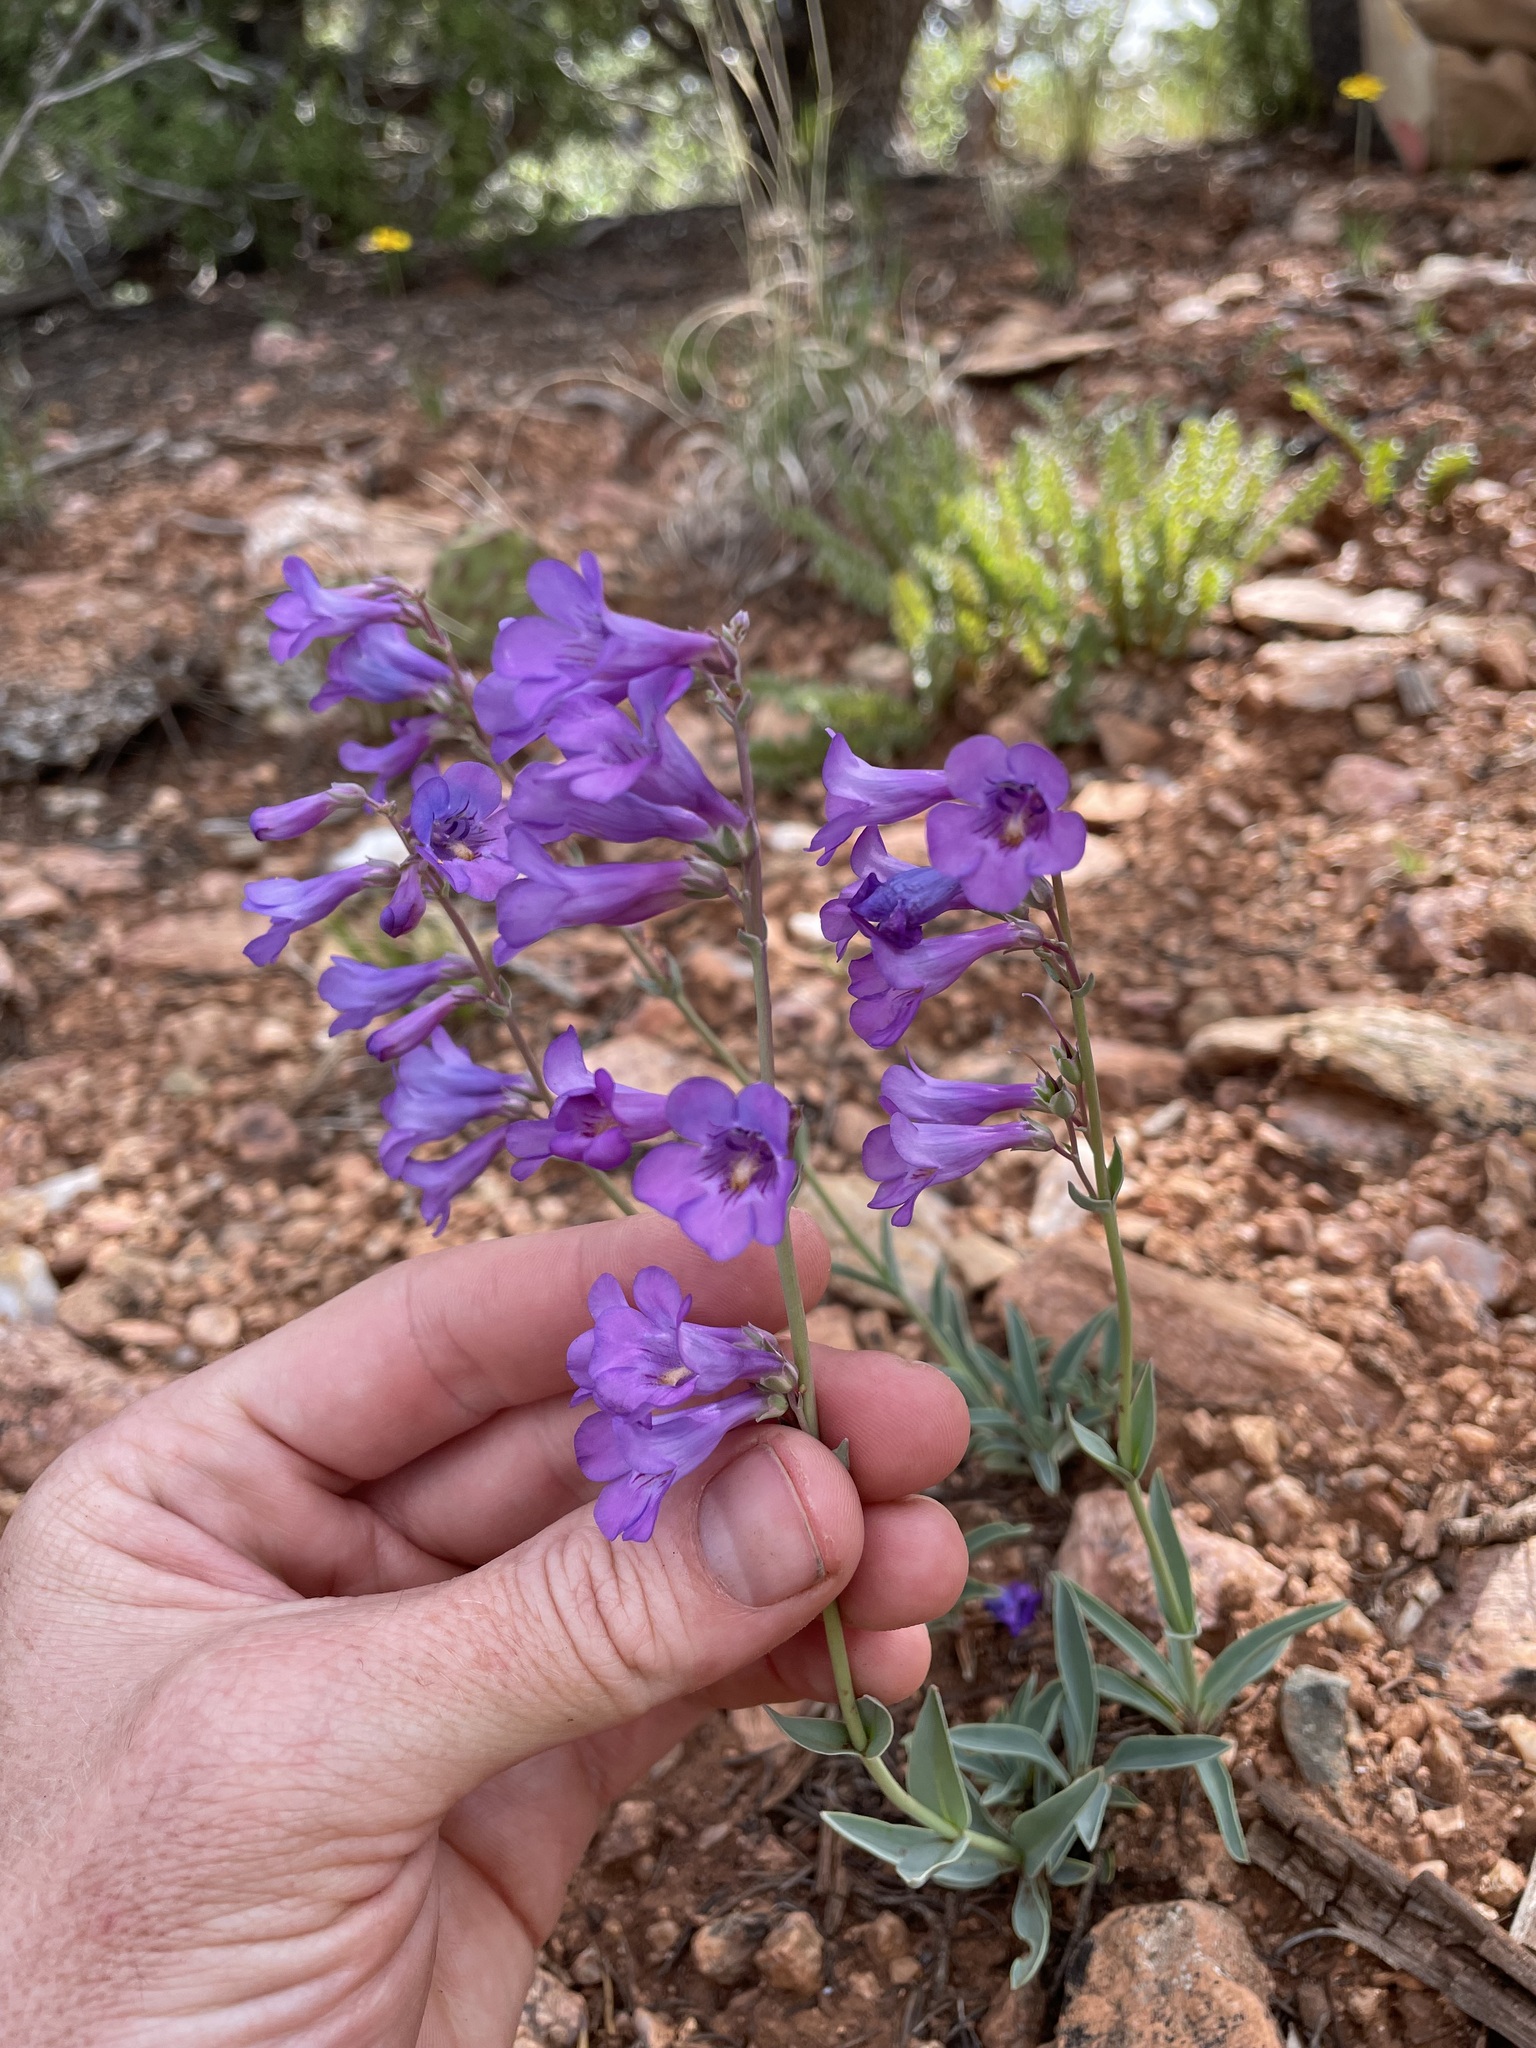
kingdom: Plantae
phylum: Tracheophyta
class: Magnoliopsida
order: Lamiales
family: Plantaginaceae
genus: Penstemon
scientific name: Penstemon secundiflorus
